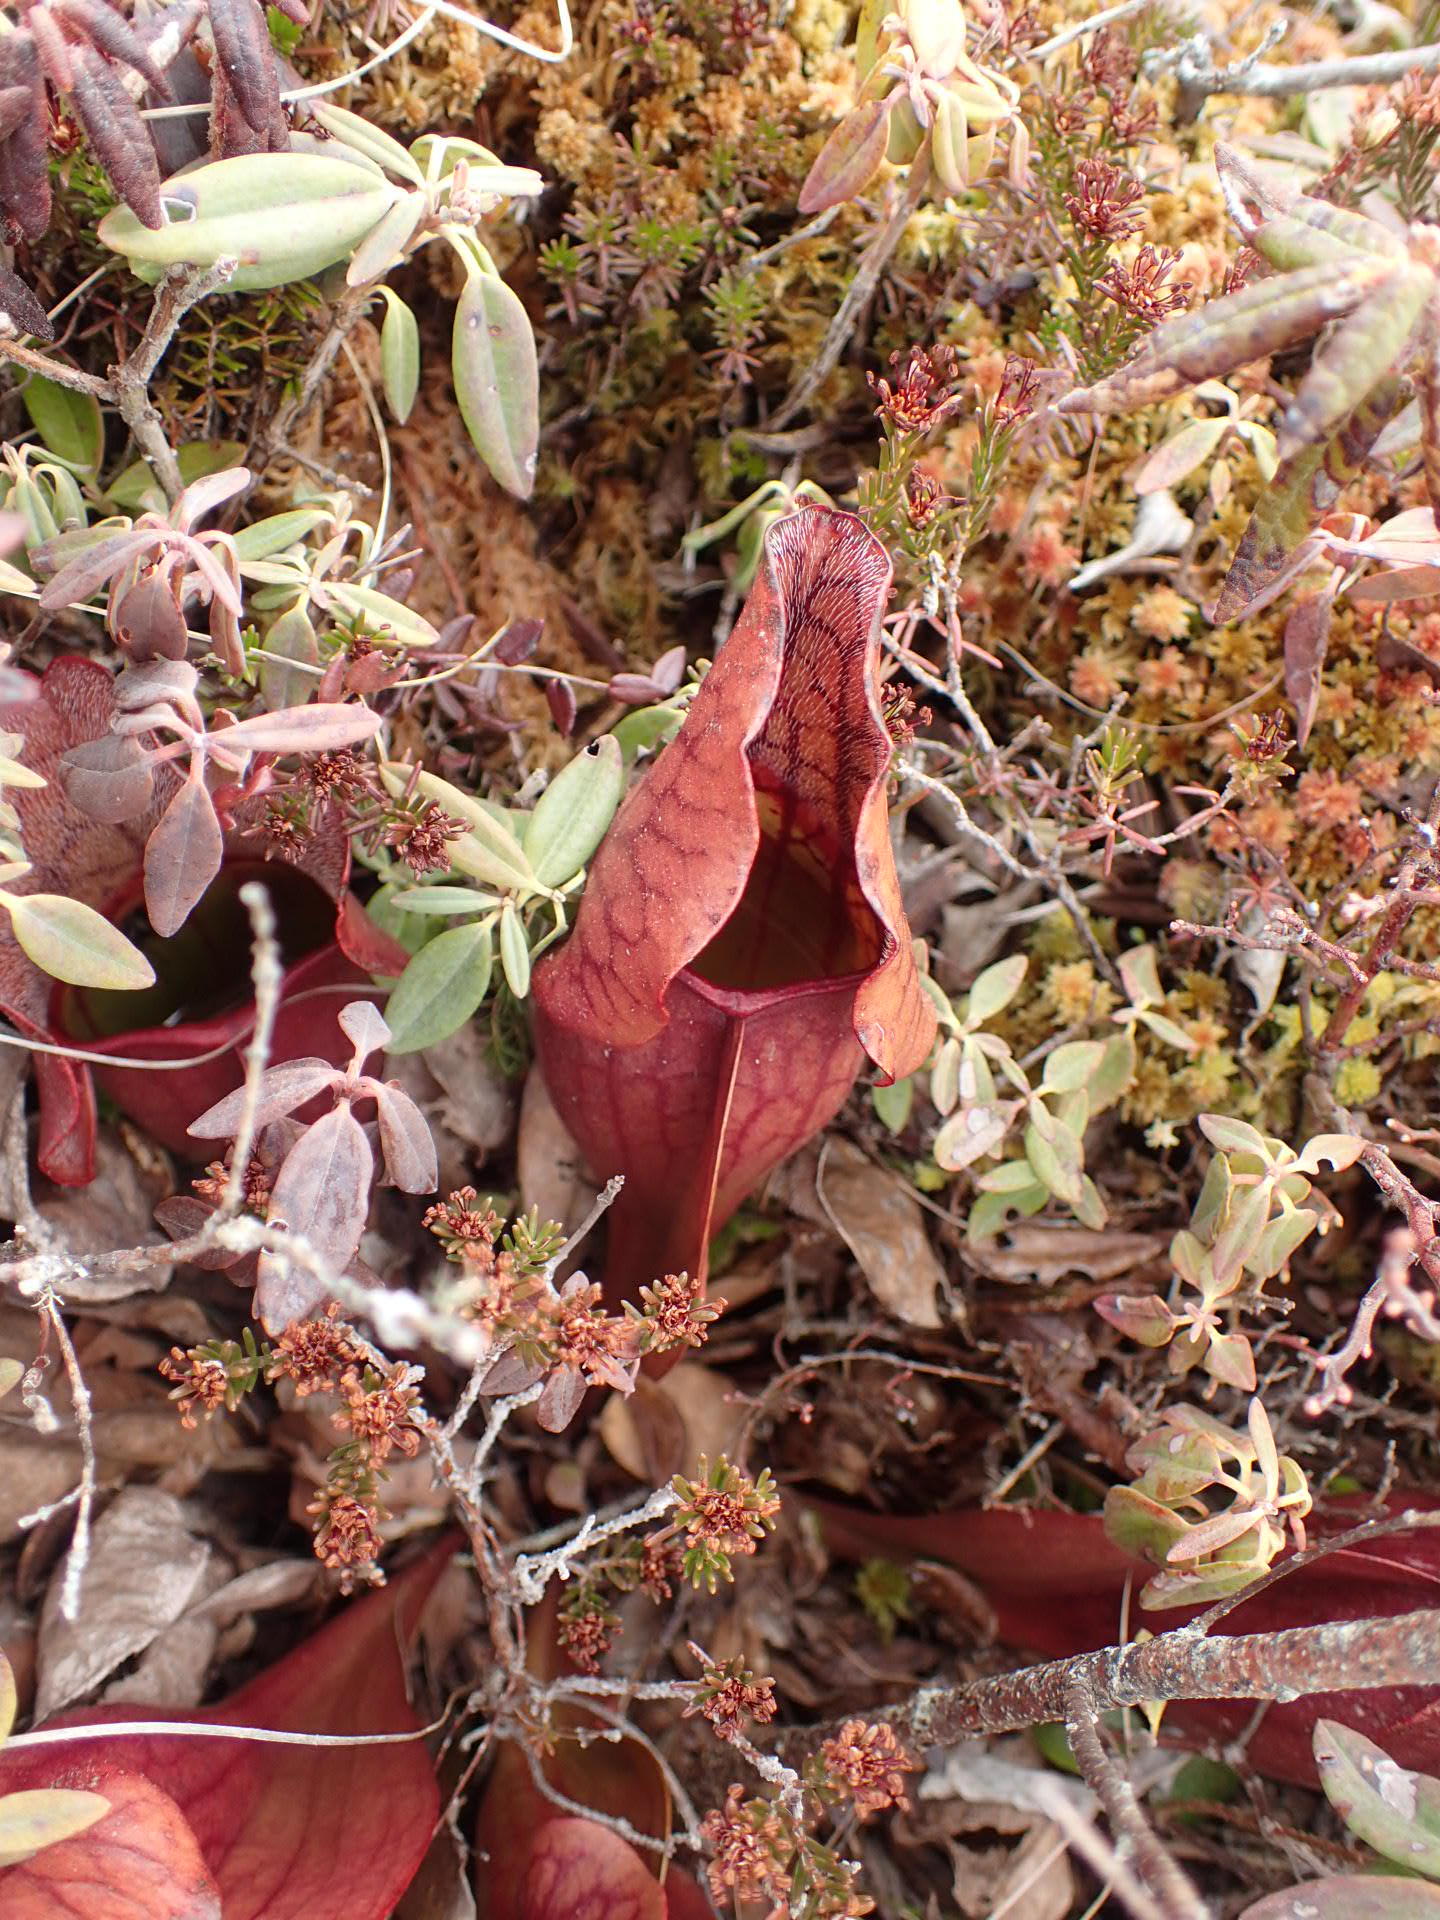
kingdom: Plantae
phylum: Tracheophyta
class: Magnoliopsida
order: Ericales
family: Sarraceniaceae
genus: Sarracenia
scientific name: Sarracenia purpurea
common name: Pitcherplant
